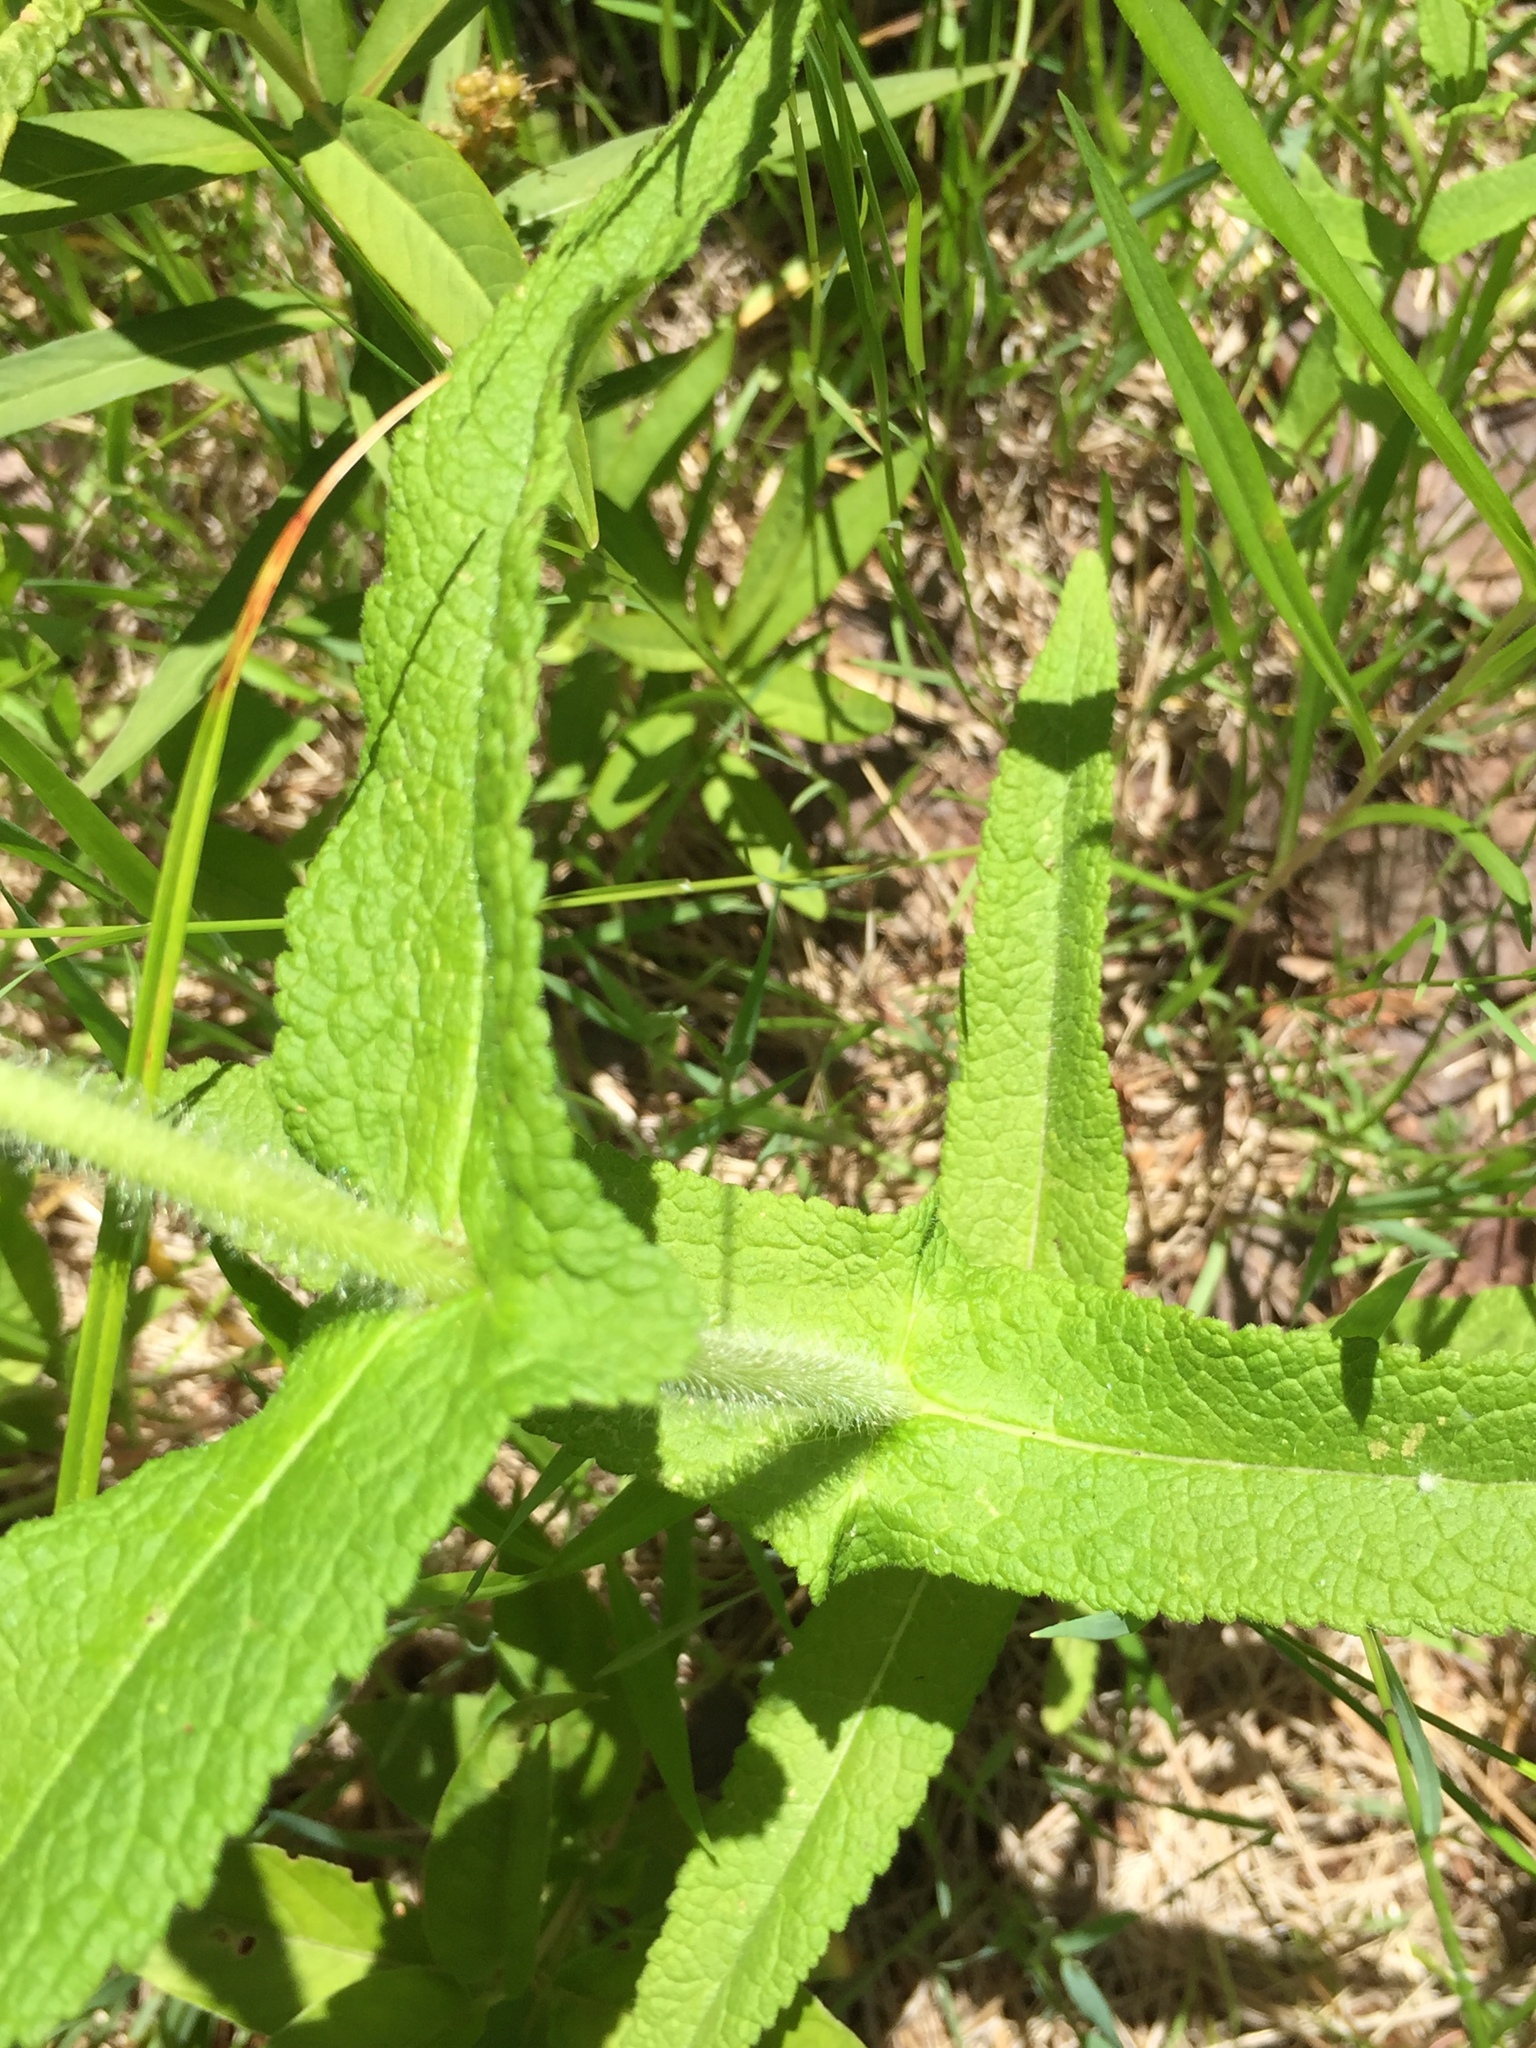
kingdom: Plantae
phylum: Tracheophyta
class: Magnoliopsida
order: Asterales
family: Asteraceae
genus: Eupatorium
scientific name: Eupatorium perfoliatum
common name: Boneset
